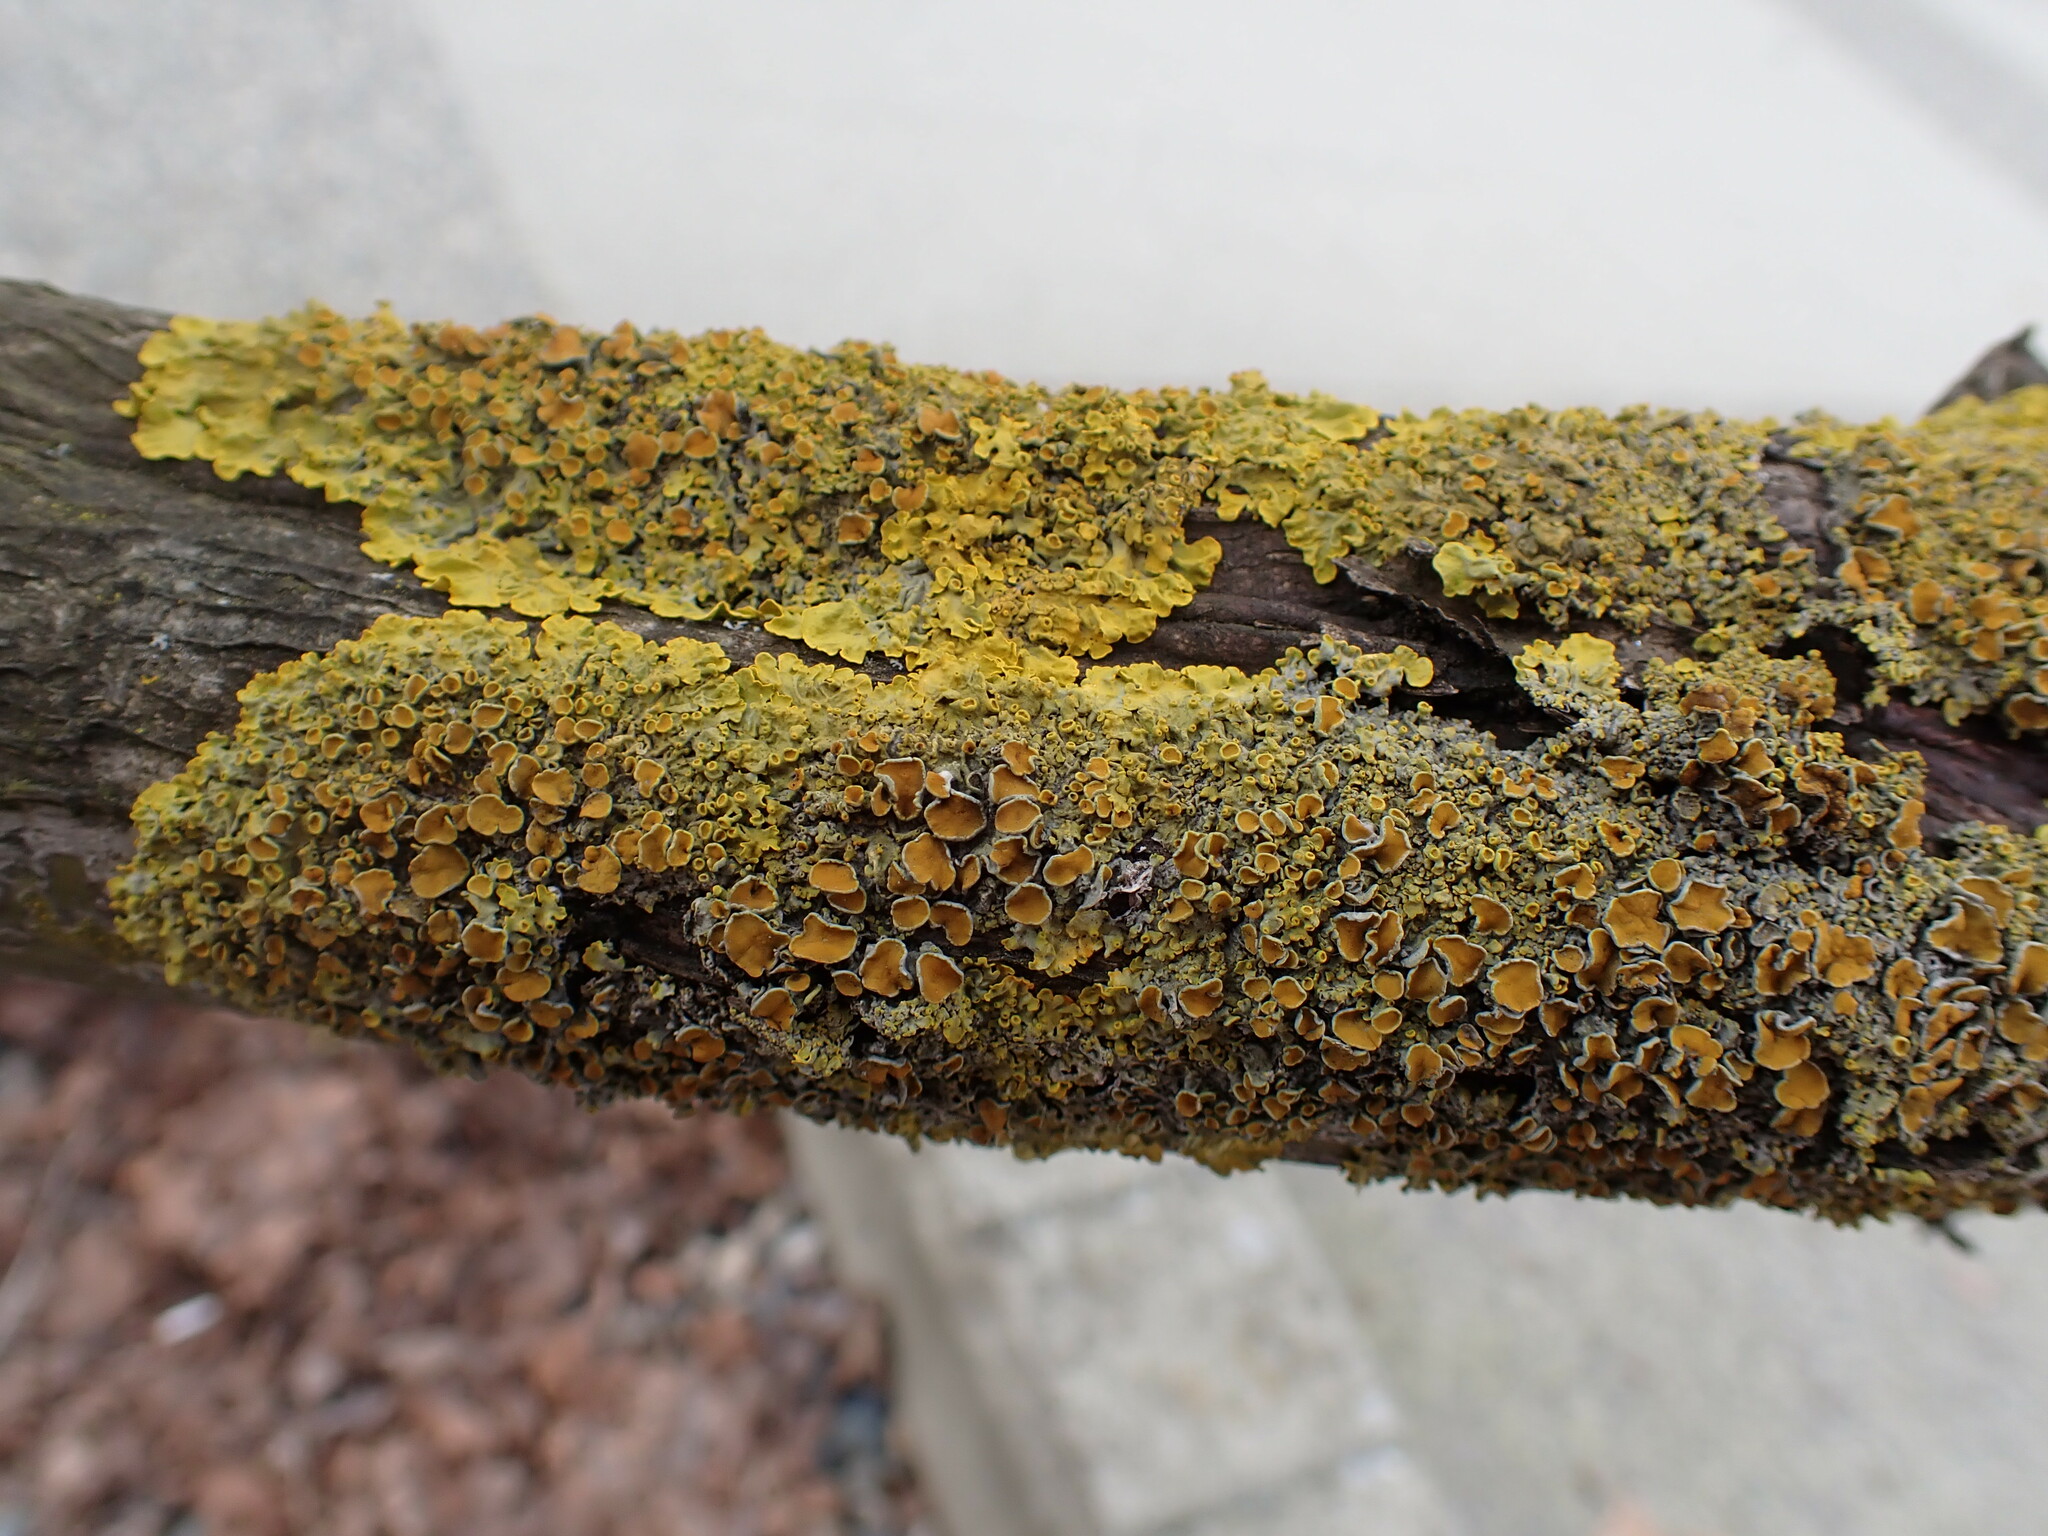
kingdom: Fungi
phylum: Ascomycota
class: Lecanoromycetes
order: Teloschistales
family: Teloschistaceae
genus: Xanthoria
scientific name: Xanthoria parietina
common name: Common orange lichen
